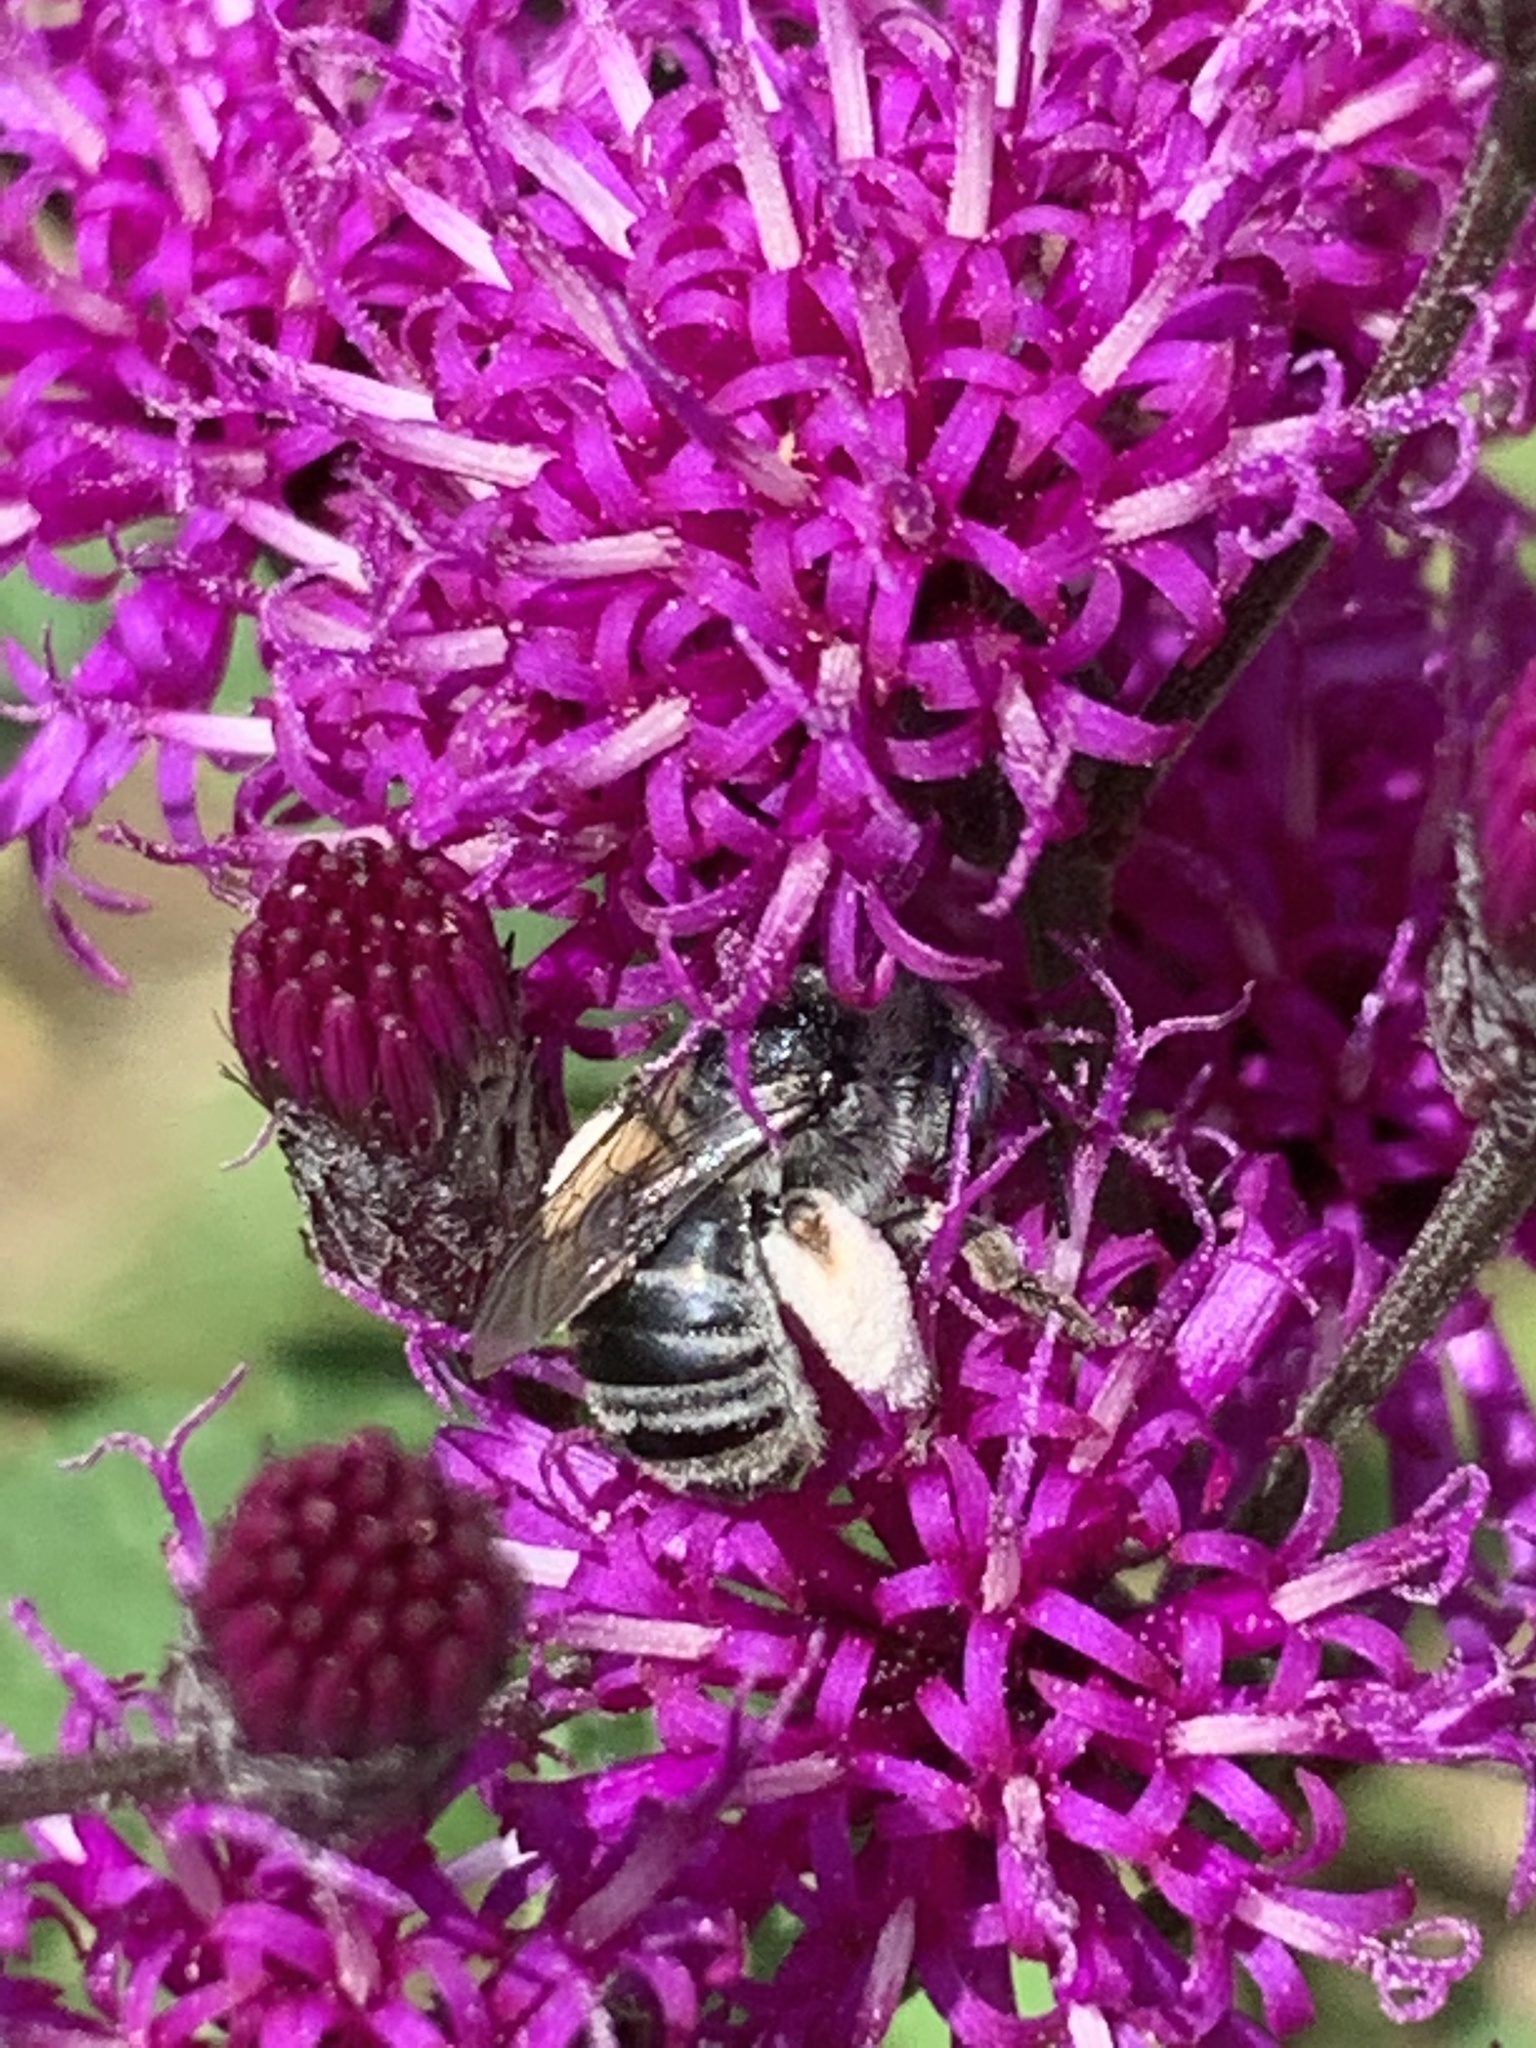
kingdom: Animalia
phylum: Arthropoda
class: Insecta
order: Hymenoptera
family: Apidae
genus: Melissodes
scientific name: Melissodes denticulatus
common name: Denticulate long-horned bee
